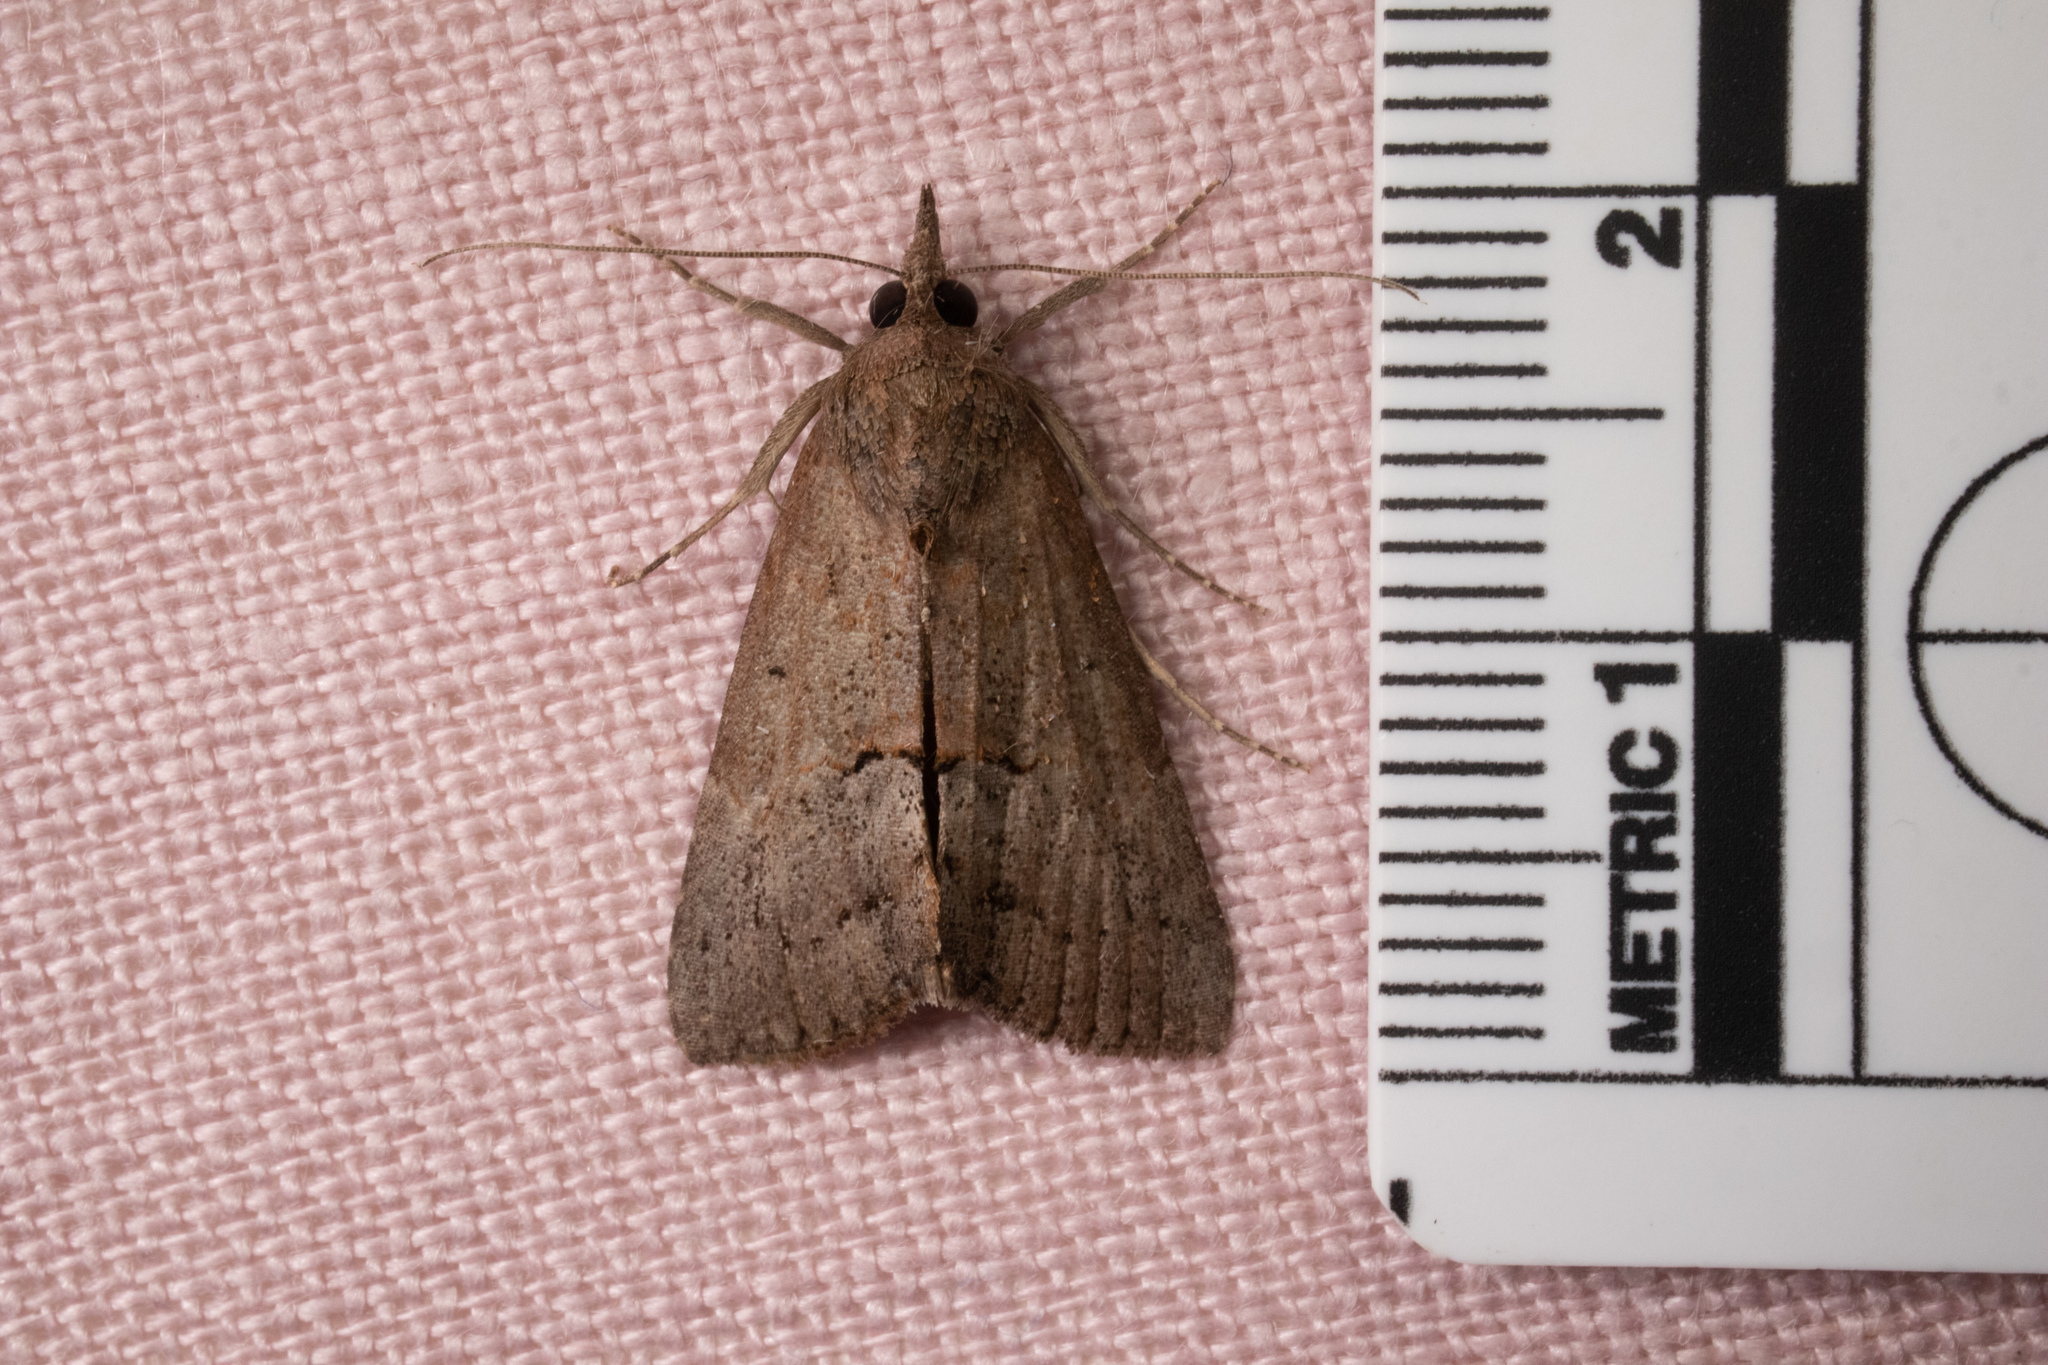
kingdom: Animalia
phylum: Arthropoda
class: Insecta
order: Lepidoptera
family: Erebidae
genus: Hypena
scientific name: Hypena scabra
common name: Green cloverworm
